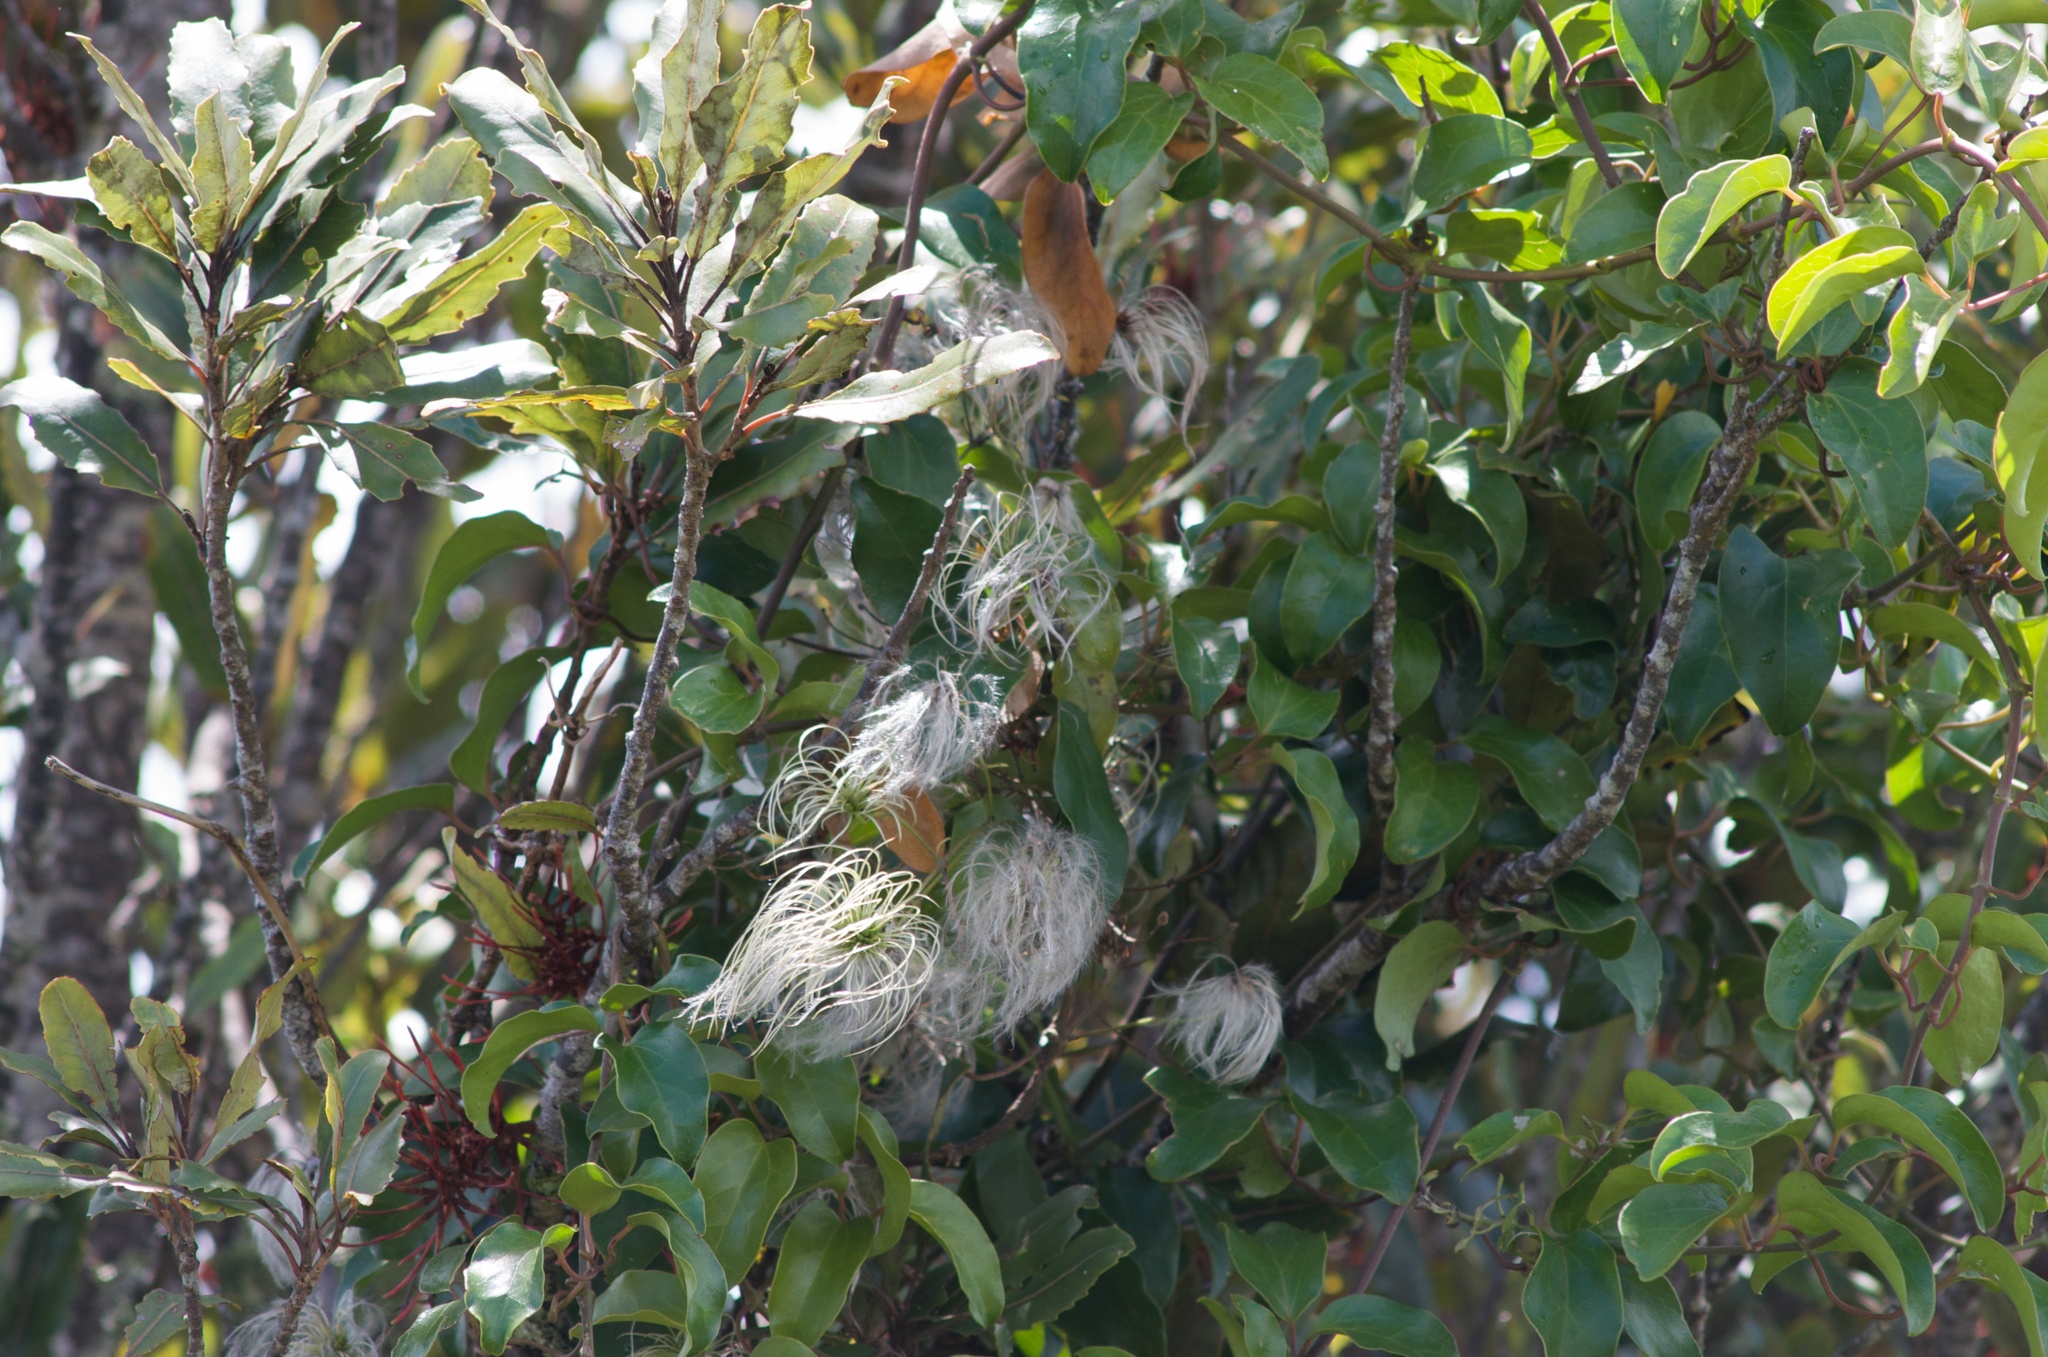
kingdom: Plantae
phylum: Tracheophyta
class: Magnoliopsida
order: Ranunculales
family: Ranunculaceae
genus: Clematis
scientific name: Clematis paniculata
